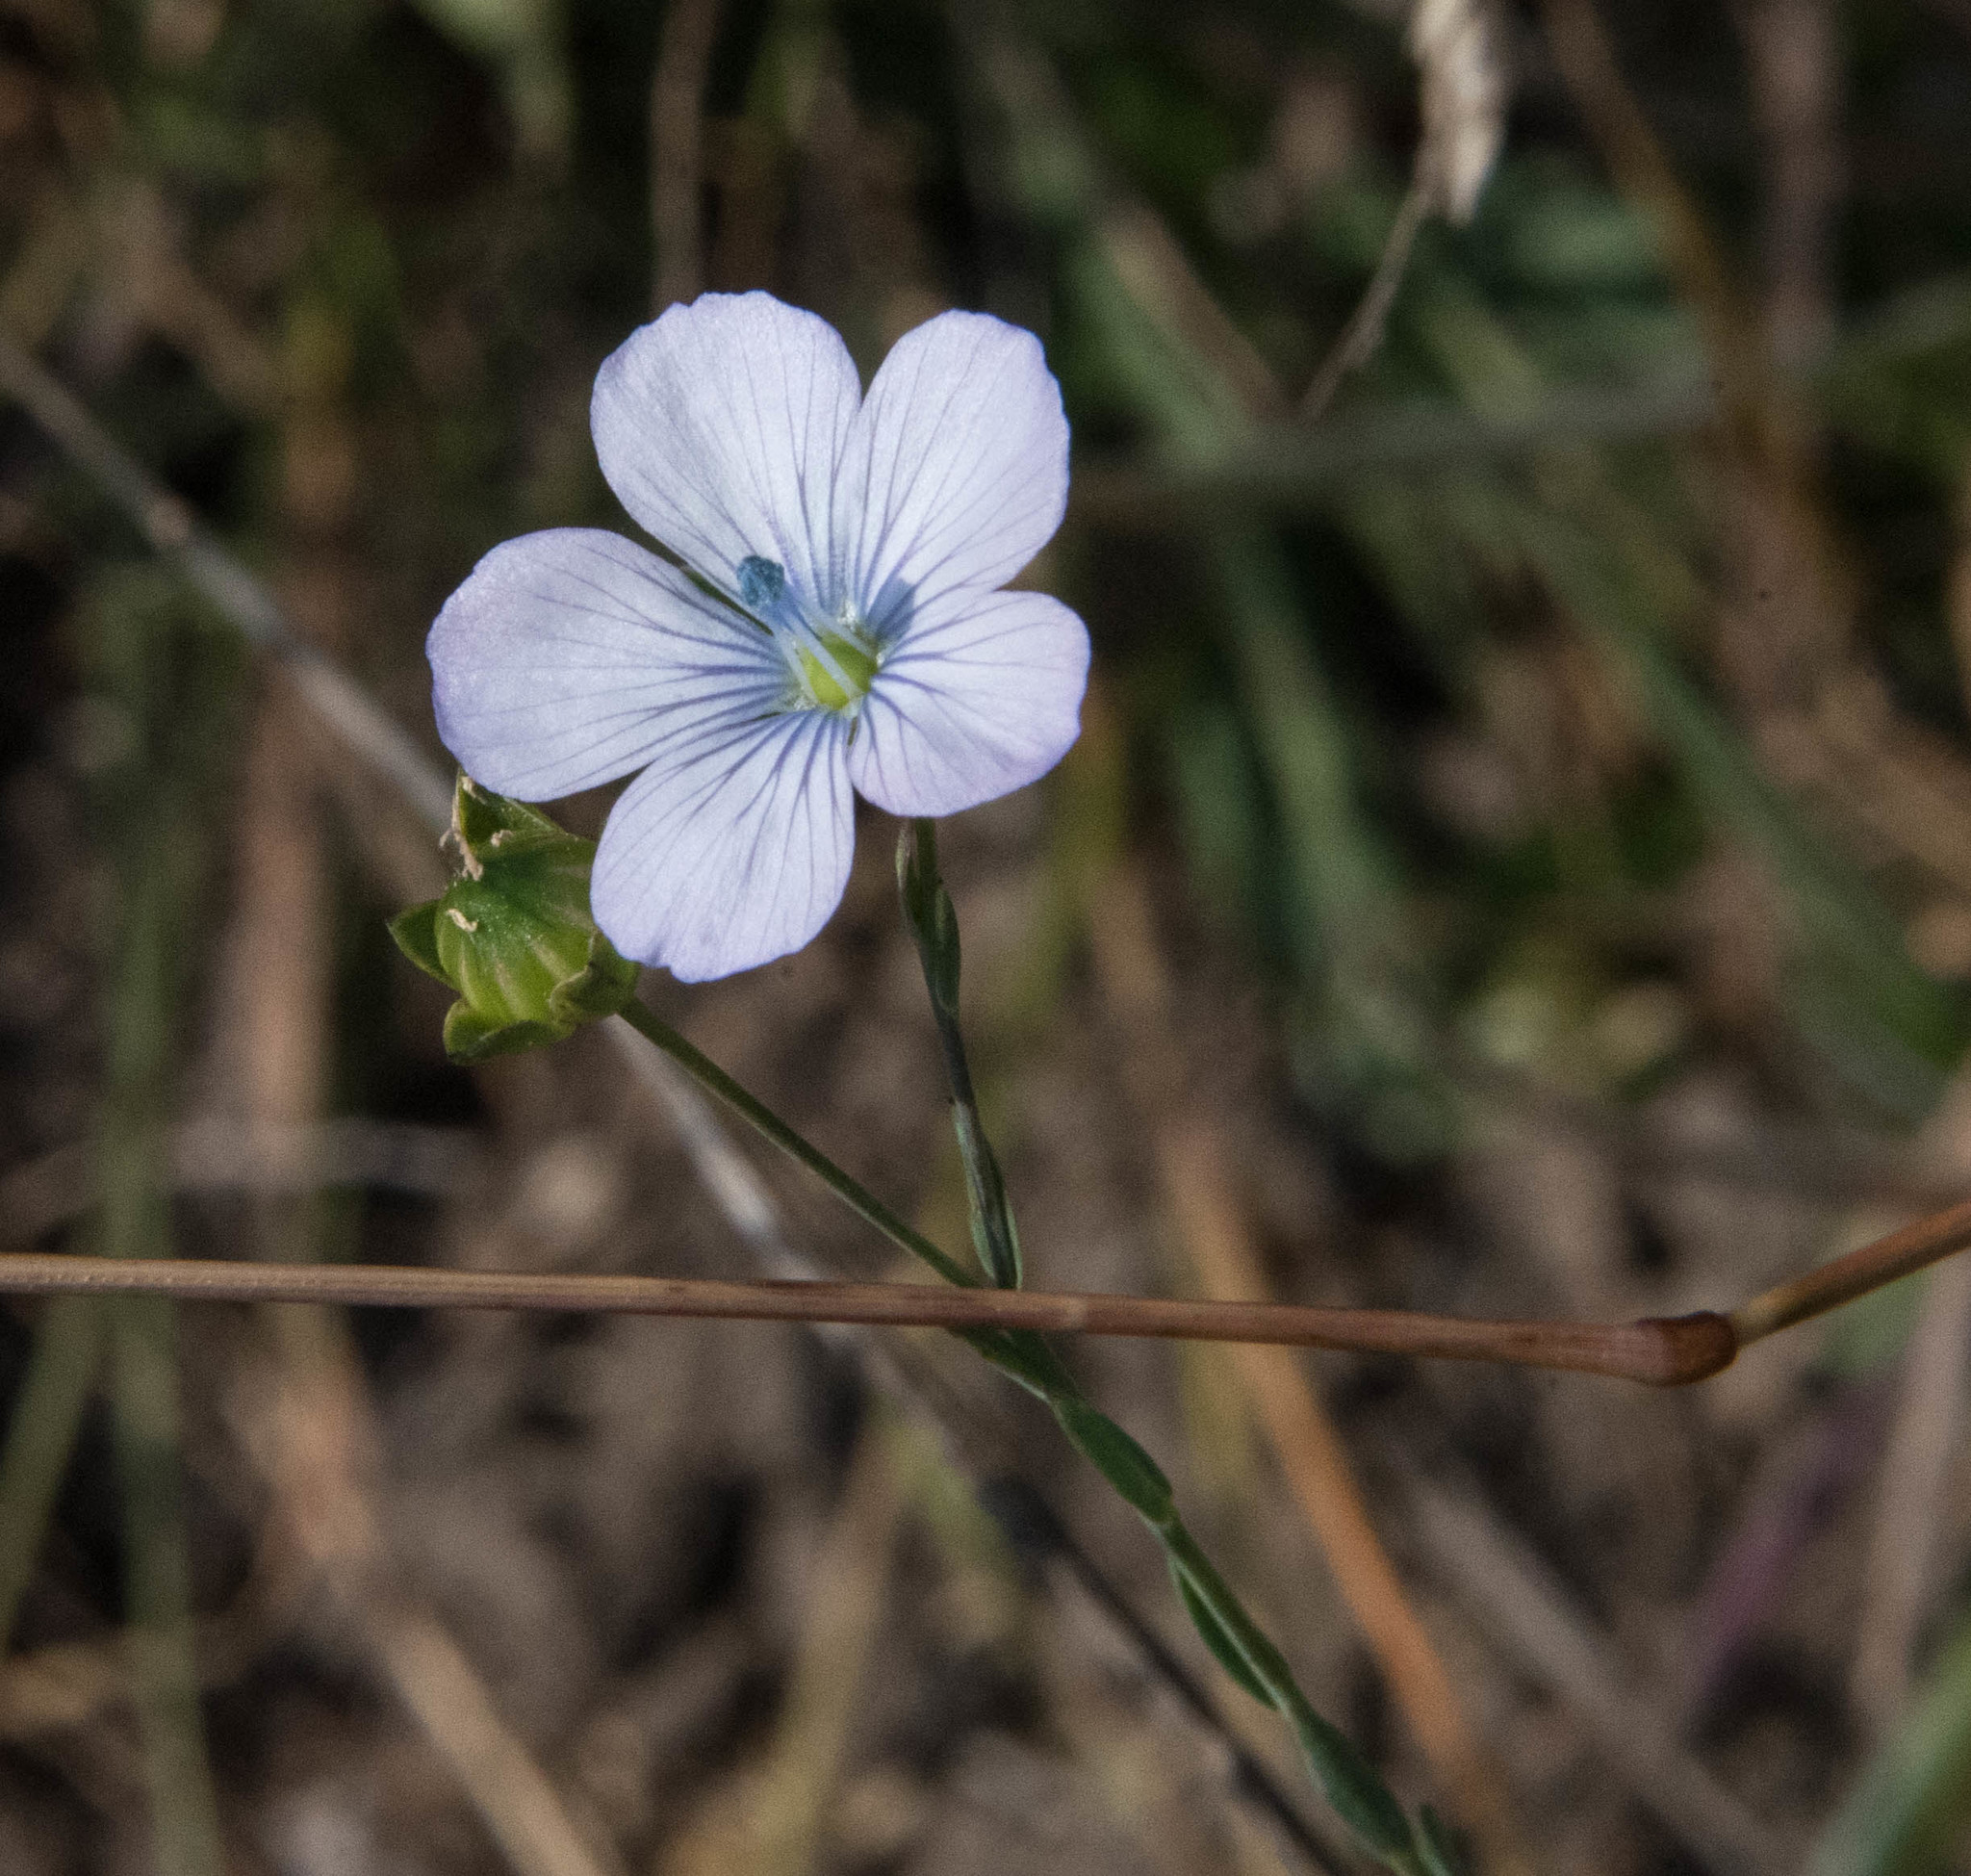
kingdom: Plantae
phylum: Tracheophyta
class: Magnoliopsida
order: Malpighiales
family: Linaceae
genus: Linum
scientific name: Linum bienne
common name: Pale flax
